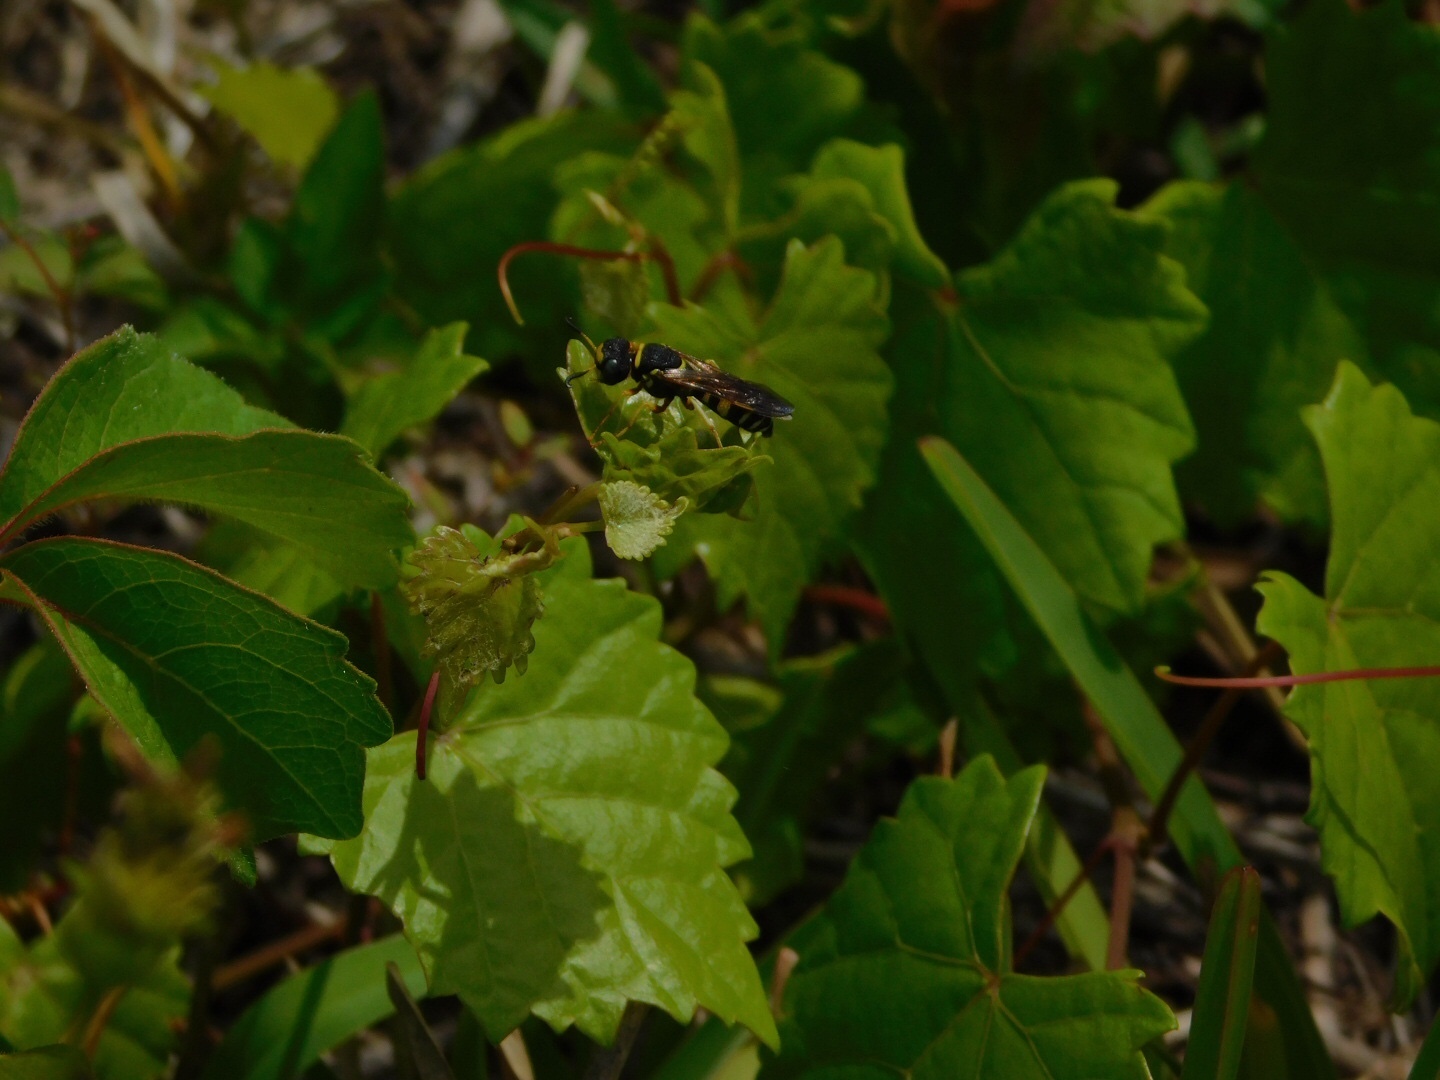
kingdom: Animalia
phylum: Arthropoda
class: Insecta
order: Hymenoptera
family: Crabronidae
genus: Philanthus
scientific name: Philanthus ventilabris
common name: Bee-killer wasp
